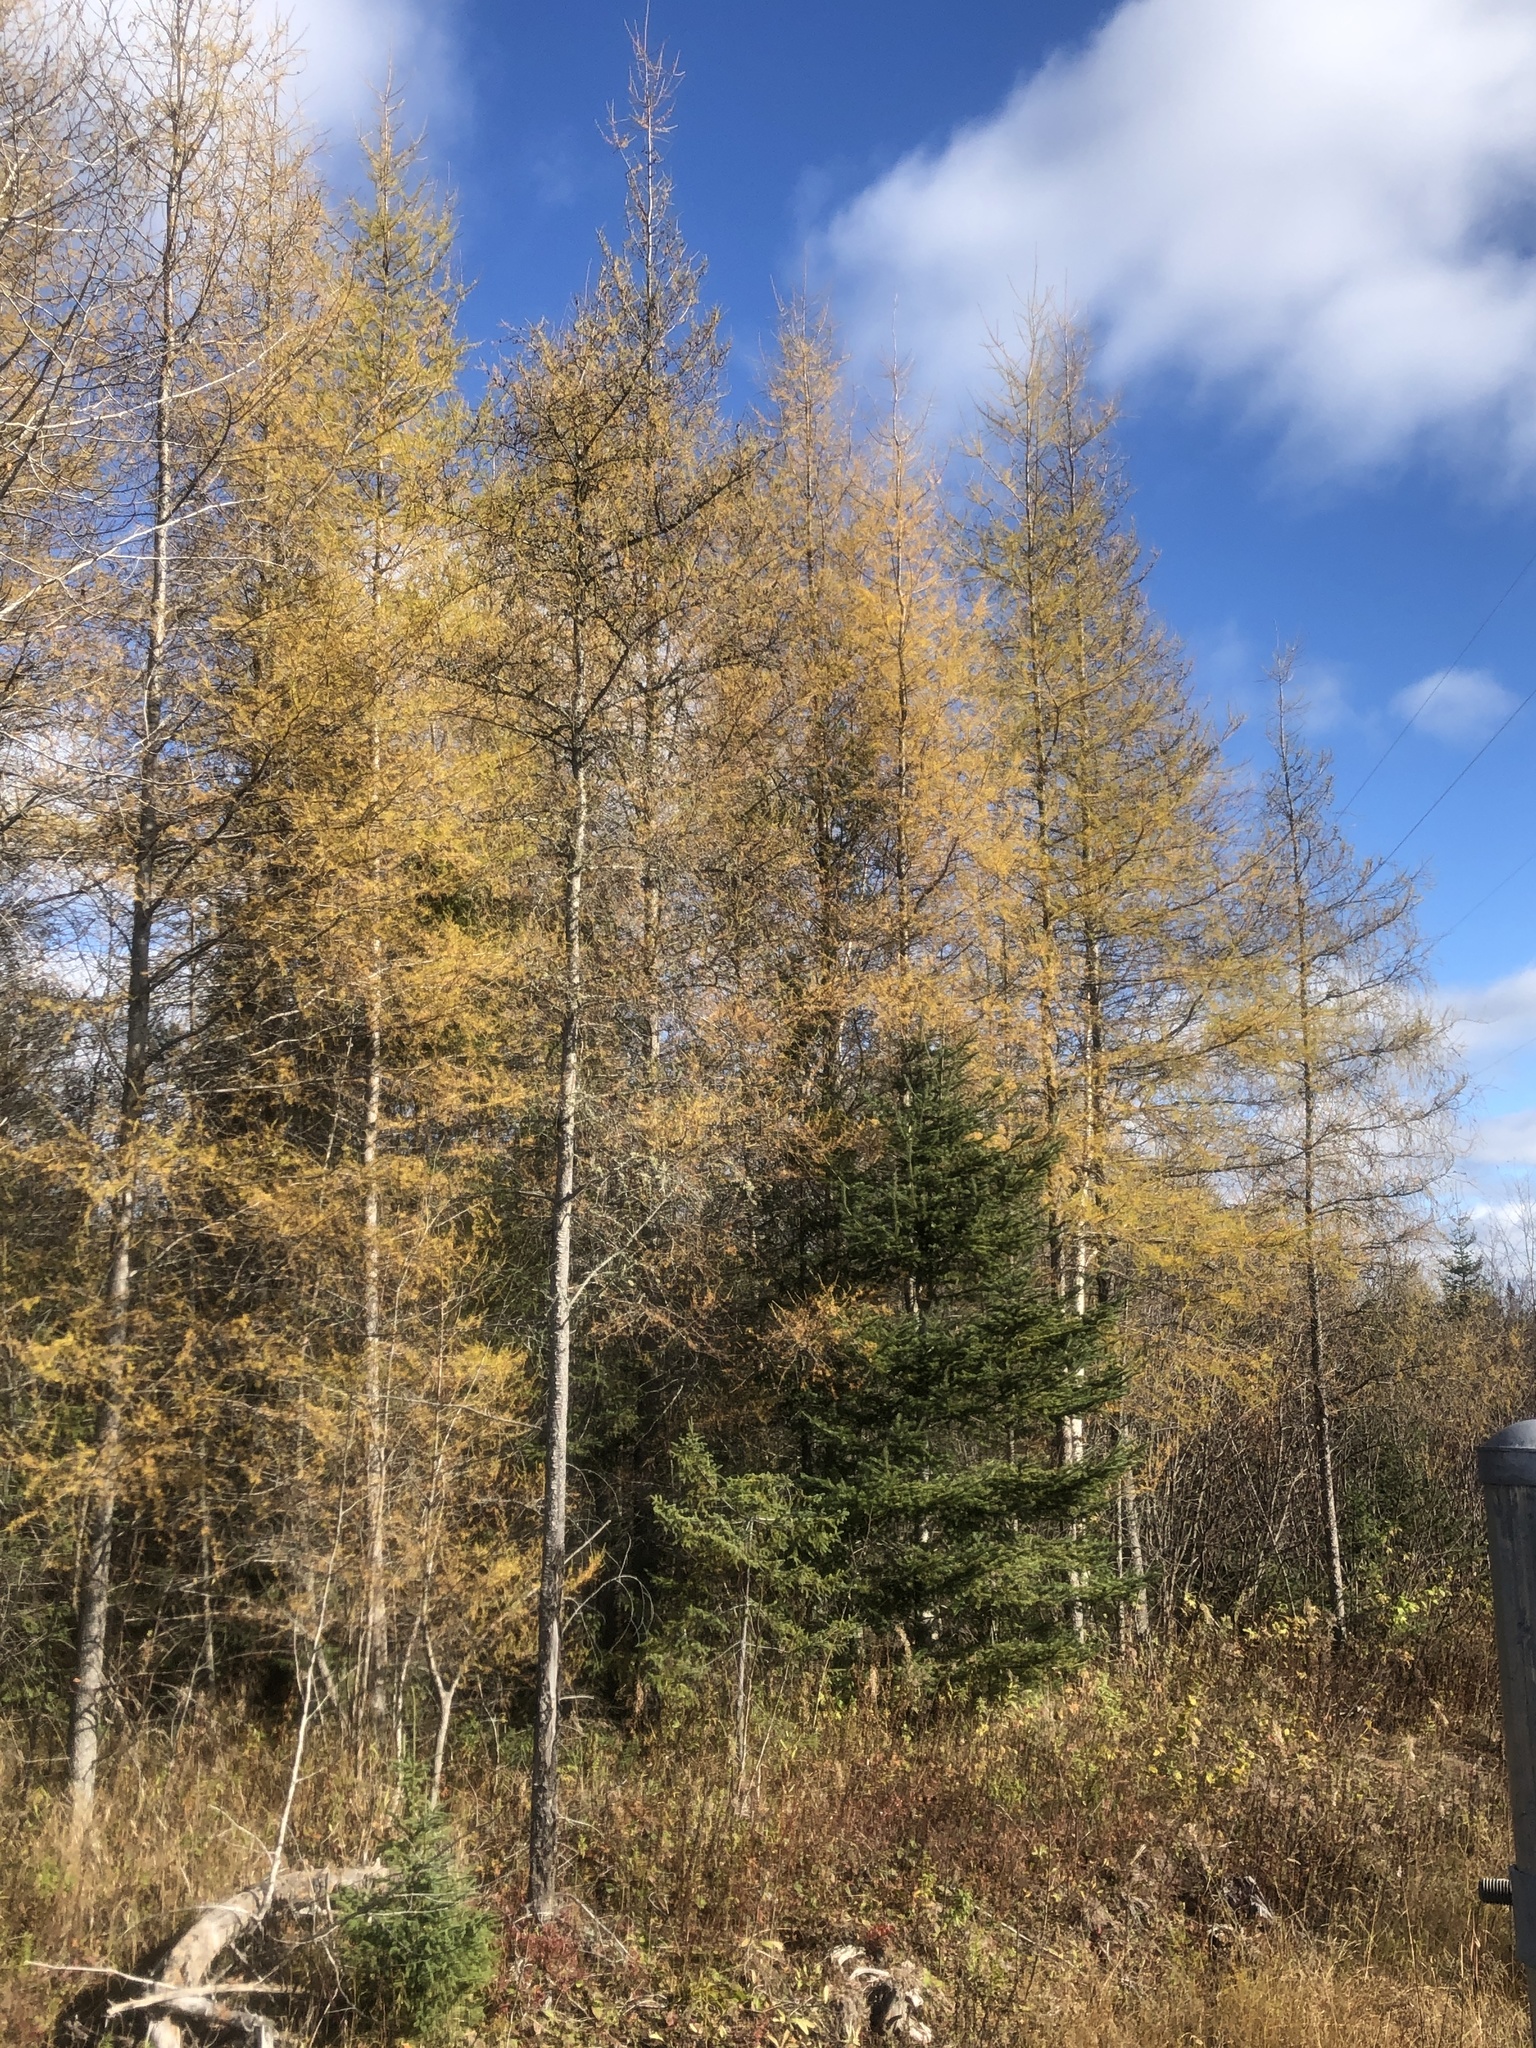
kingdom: Plantae
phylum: Tracheophyta
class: Pinopsida
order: Pinales
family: Pinaceae
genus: Larix
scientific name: Larix laricina
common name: American larch
